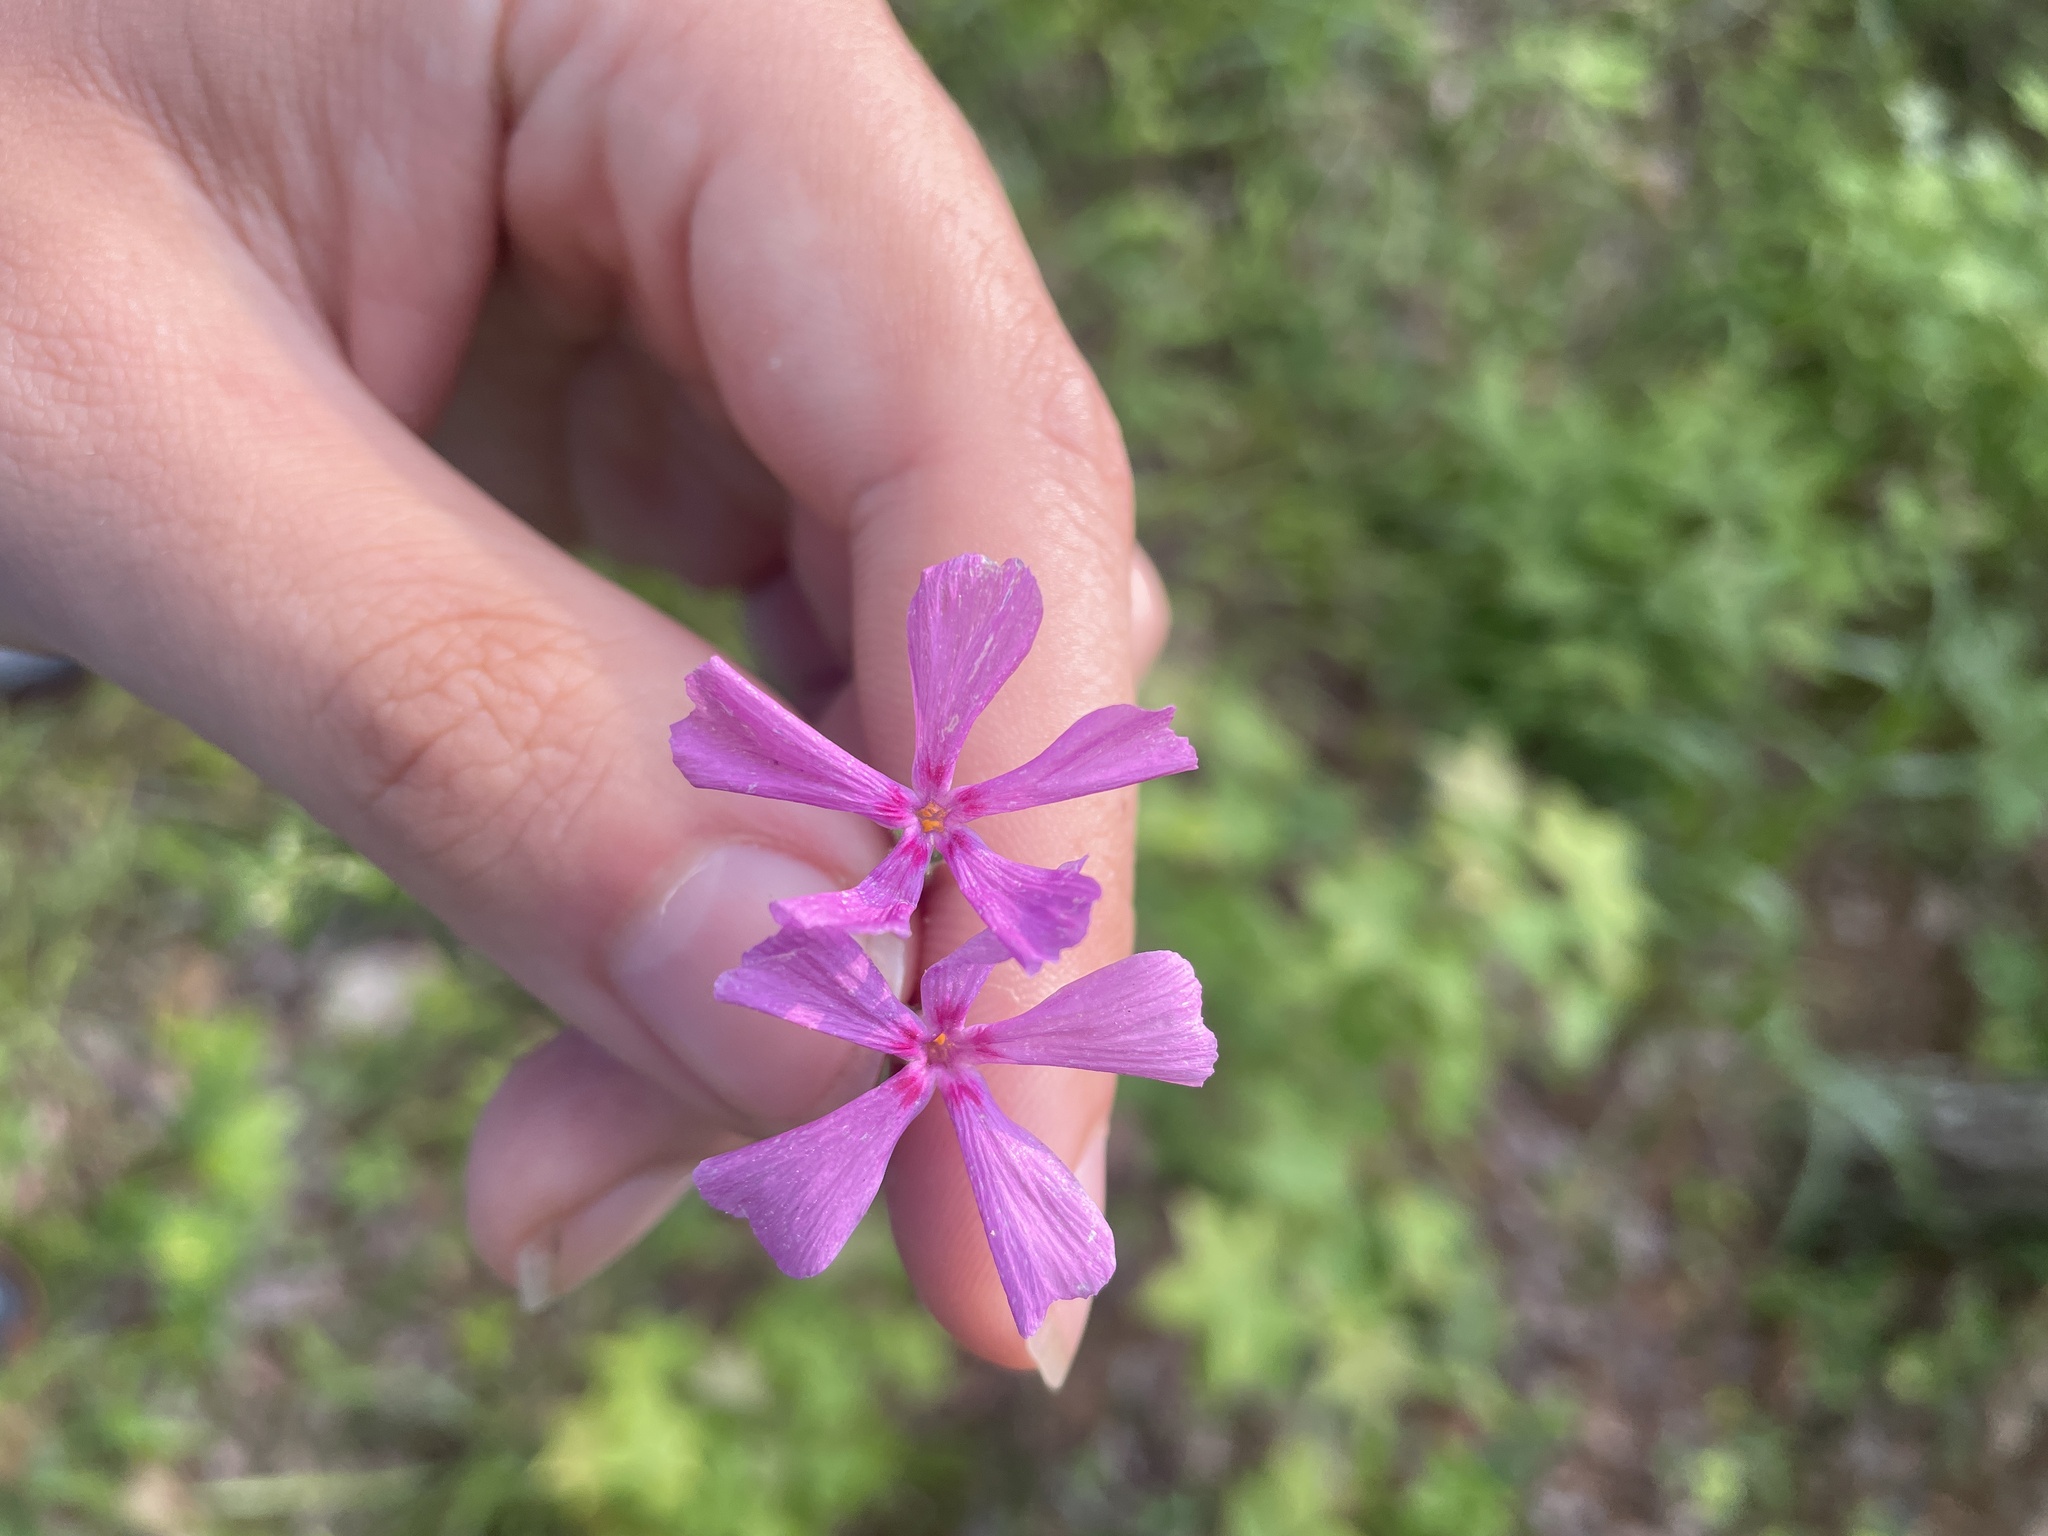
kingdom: Plantae
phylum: Tracheophyta
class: Magnoliopsida
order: Ericales
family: Polemoniaceae
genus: Phlox
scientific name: Phlox nivalis
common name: Trailing phlox
